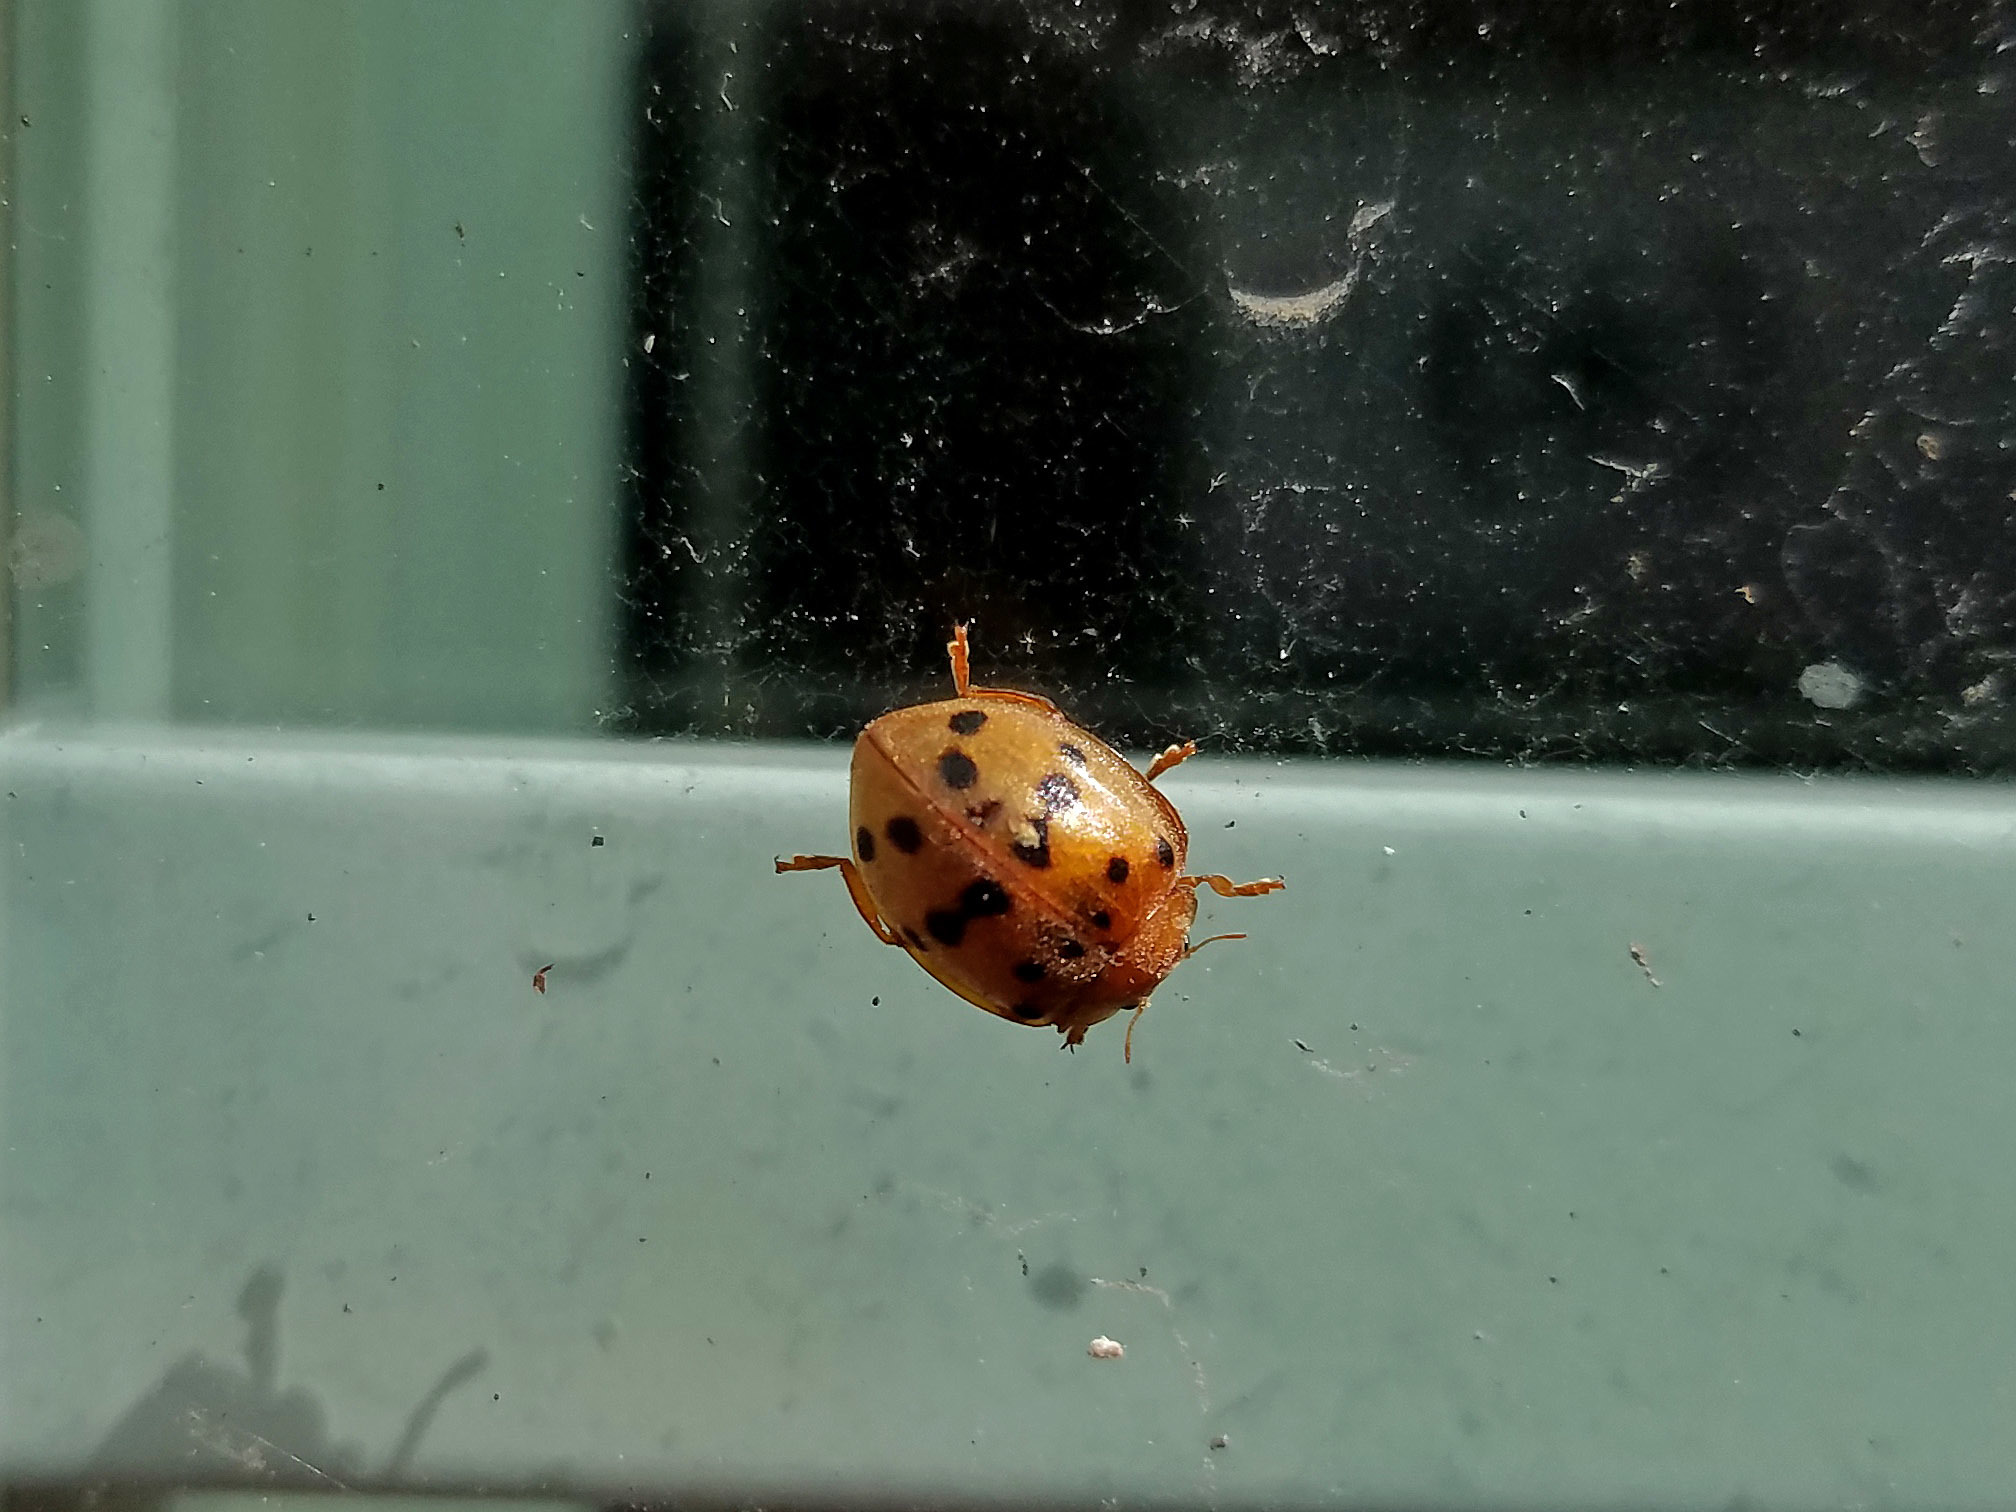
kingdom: Animalia
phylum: Arthropoda
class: Insecta
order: Coleoptera
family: Coccinellidae
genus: Epilachna
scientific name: Epilachna varivestis
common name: Ladybird beetle
